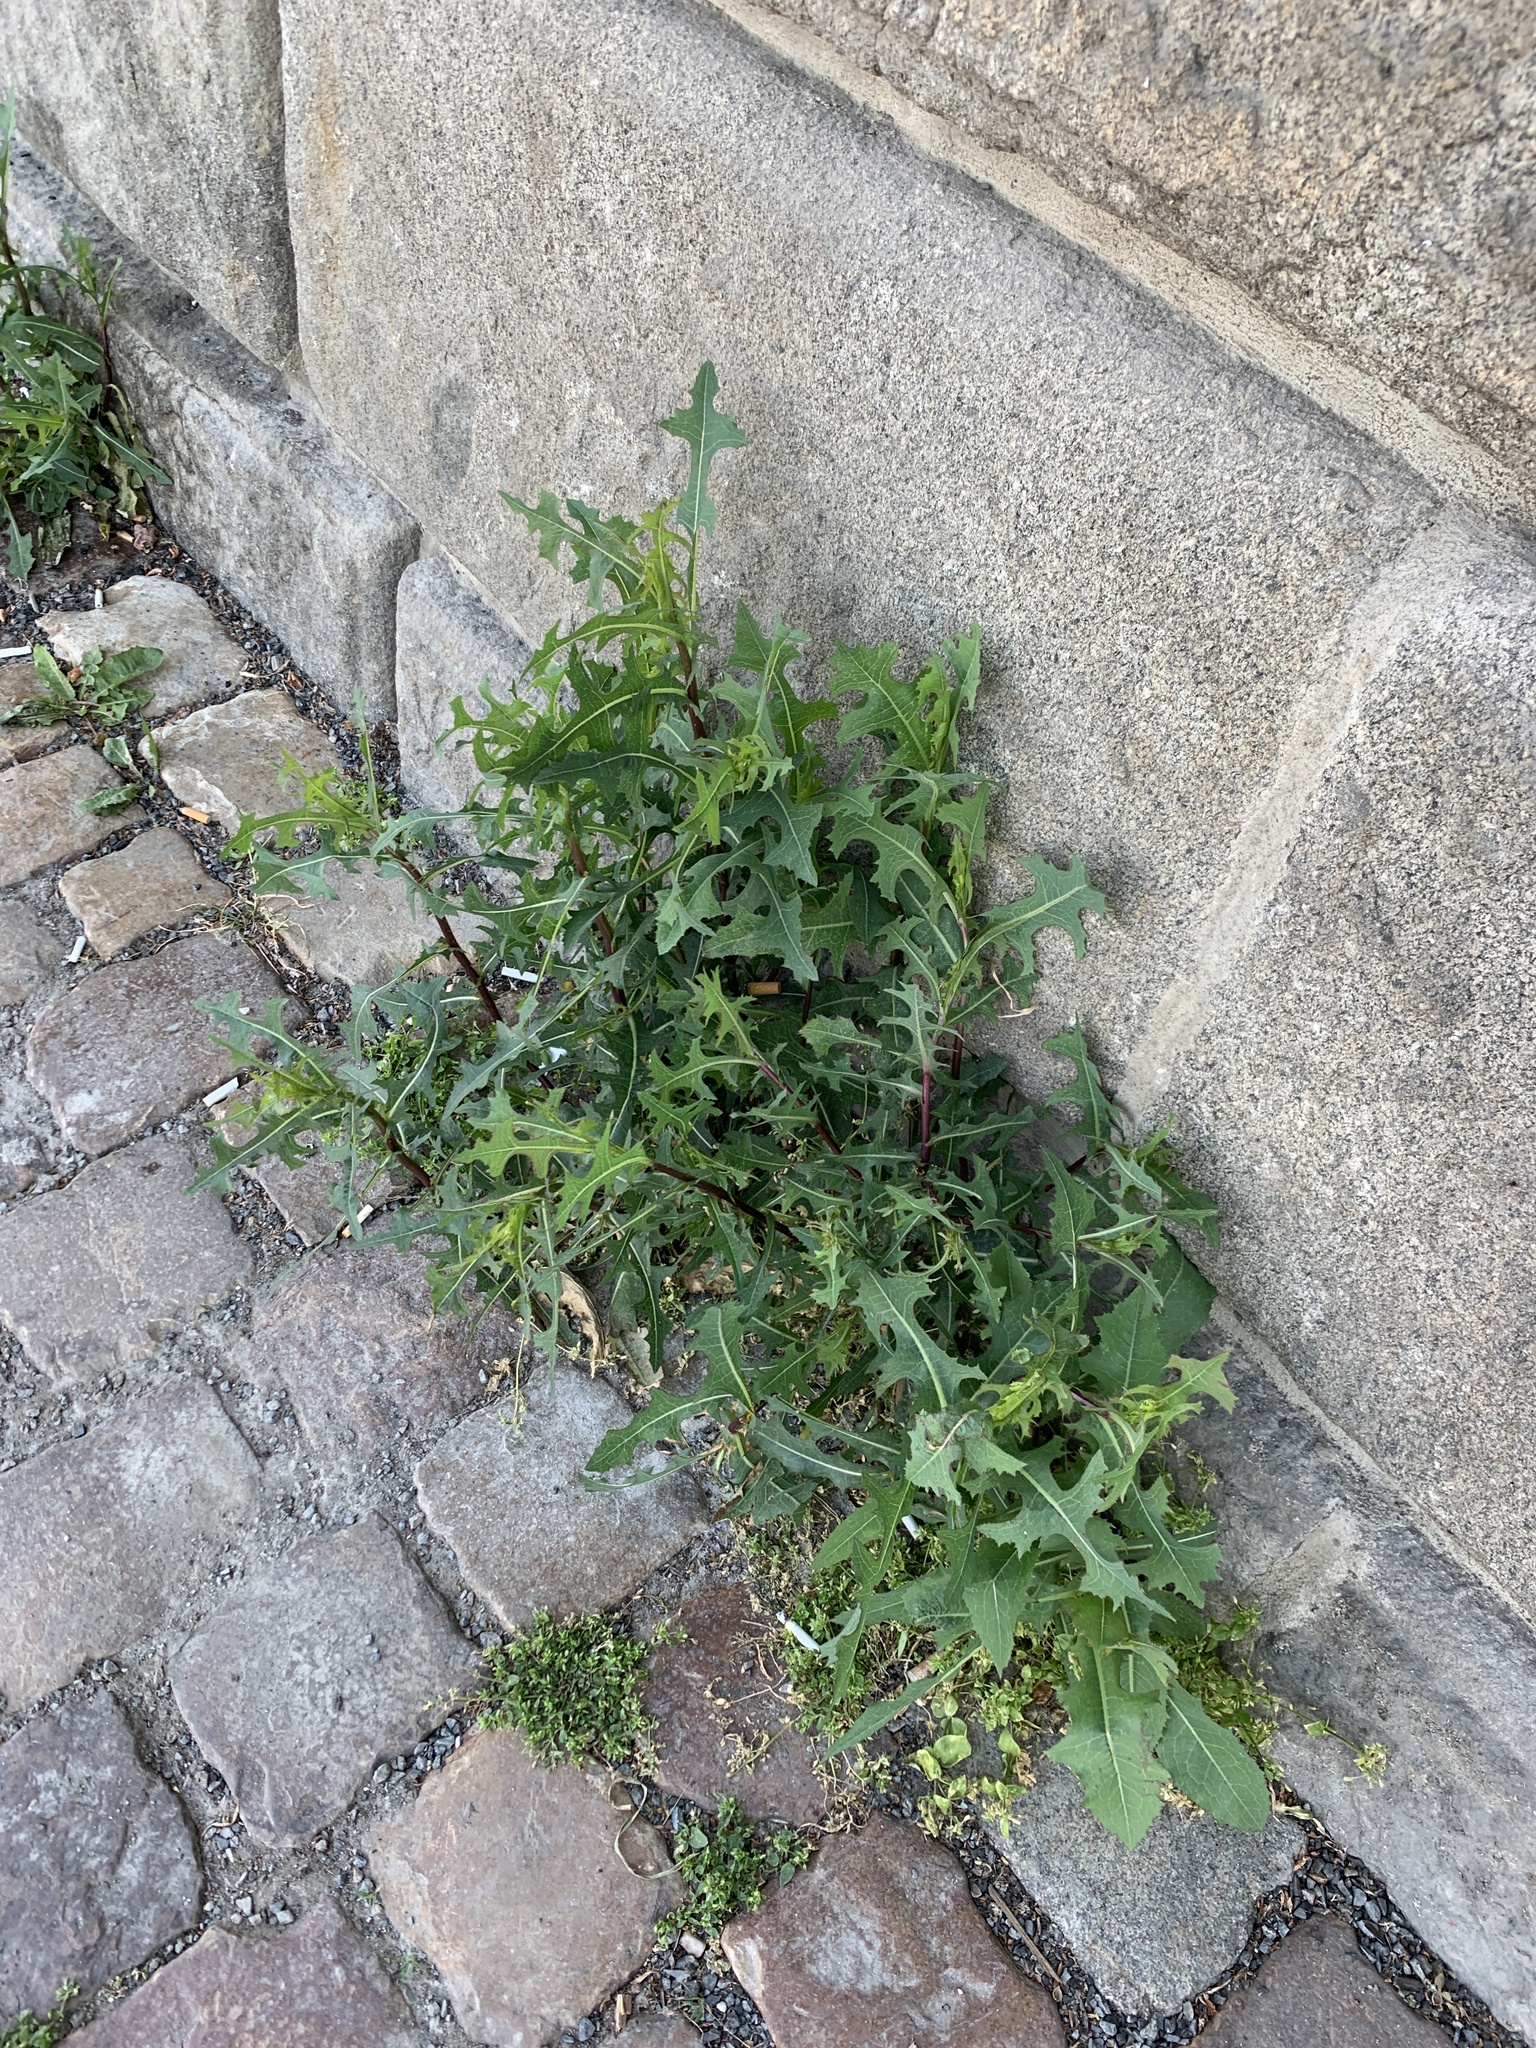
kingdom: Plantae
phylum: Tracheophyta
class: Magnoliopsida
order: Asterales
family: Asteraceae
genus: Lactuca
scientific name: Lactuca serriola
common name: Prickly lettuce
